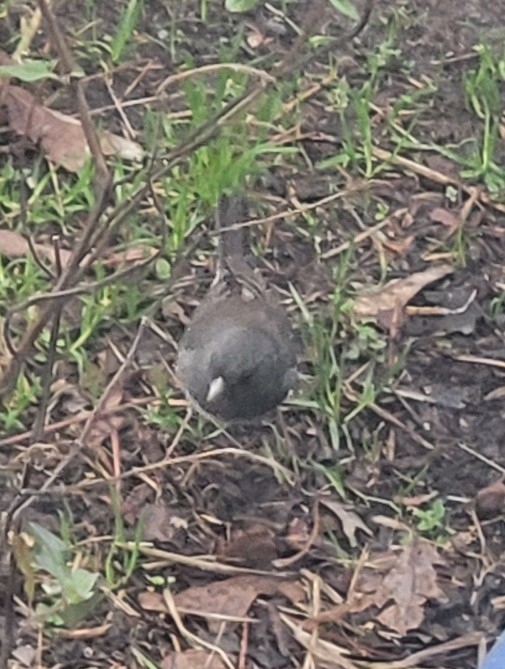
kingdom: Animalia
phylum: Chordata
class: Aves
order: Passeriformes
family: Passerellidae
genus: Junco
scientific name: Junco hyemalis
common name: Dark-eyed junco
